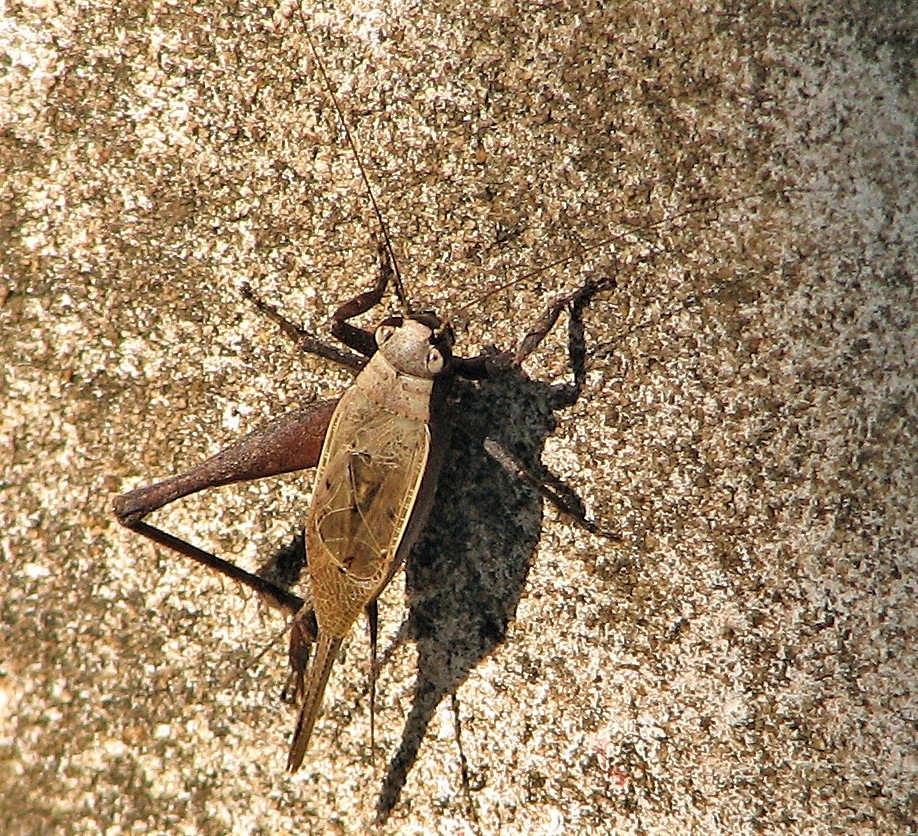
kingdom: Animalia
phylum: Arthropoda
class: Insecta
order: Orthoptera
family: Gryllidae
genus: Eneoptera
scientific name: Eneoptera surinamensis
